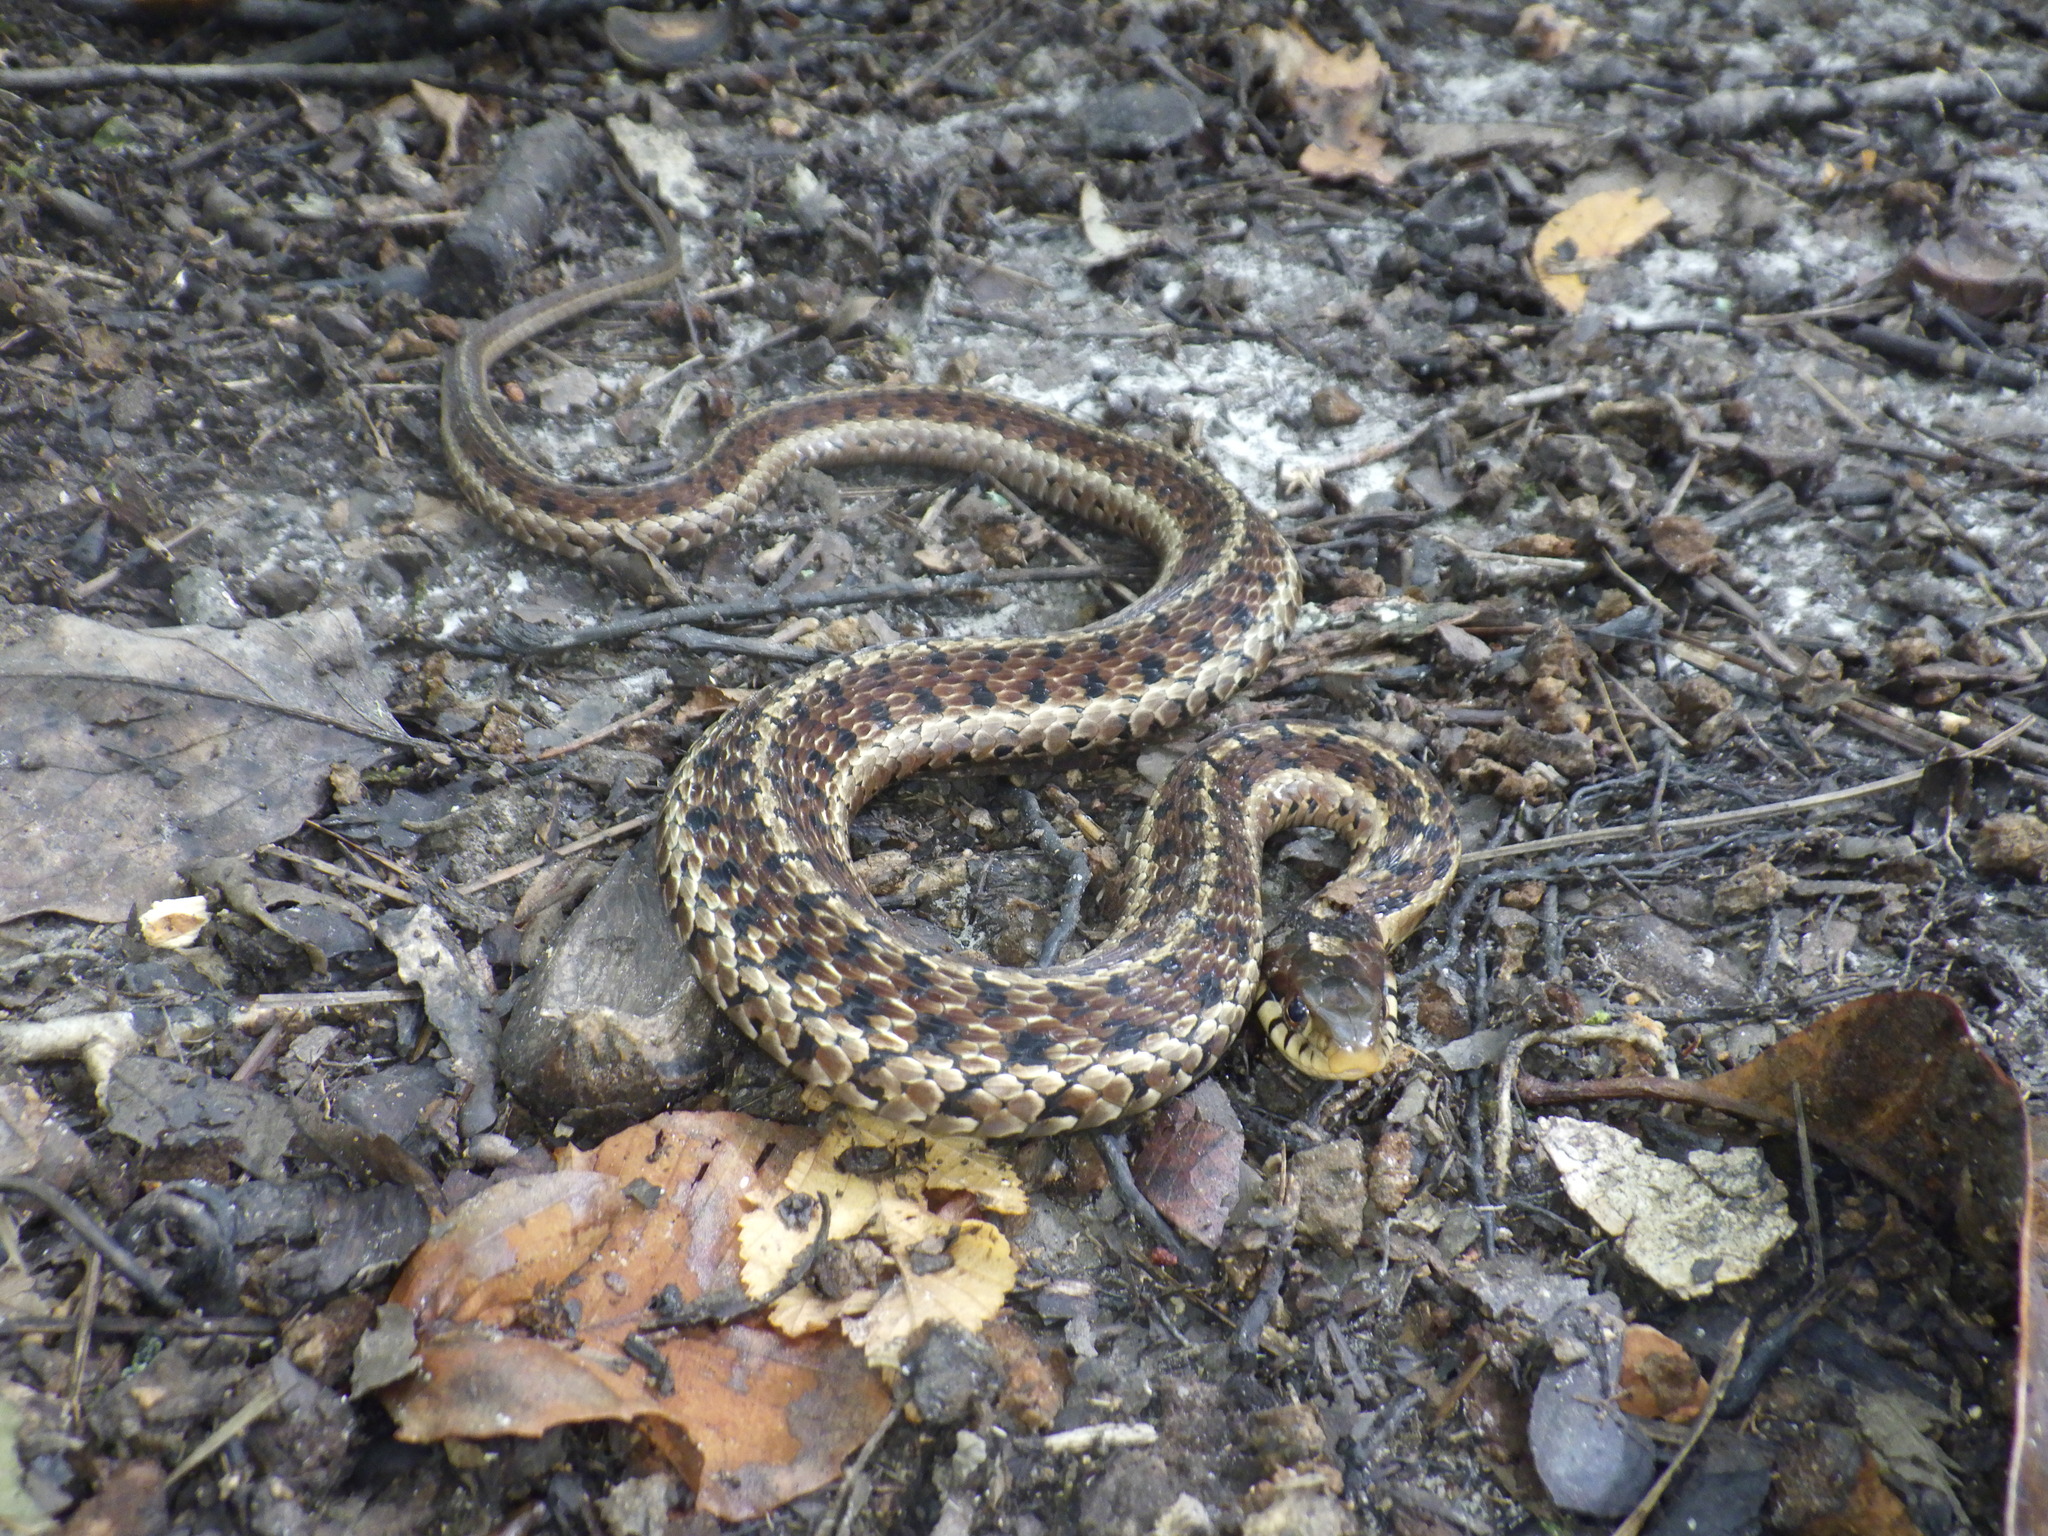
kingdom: Animalia
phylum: Chordata
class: Squamata
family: Colubridae
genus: Thamnophis
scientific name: Thamnophis sirtalis
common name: Common garter snake
